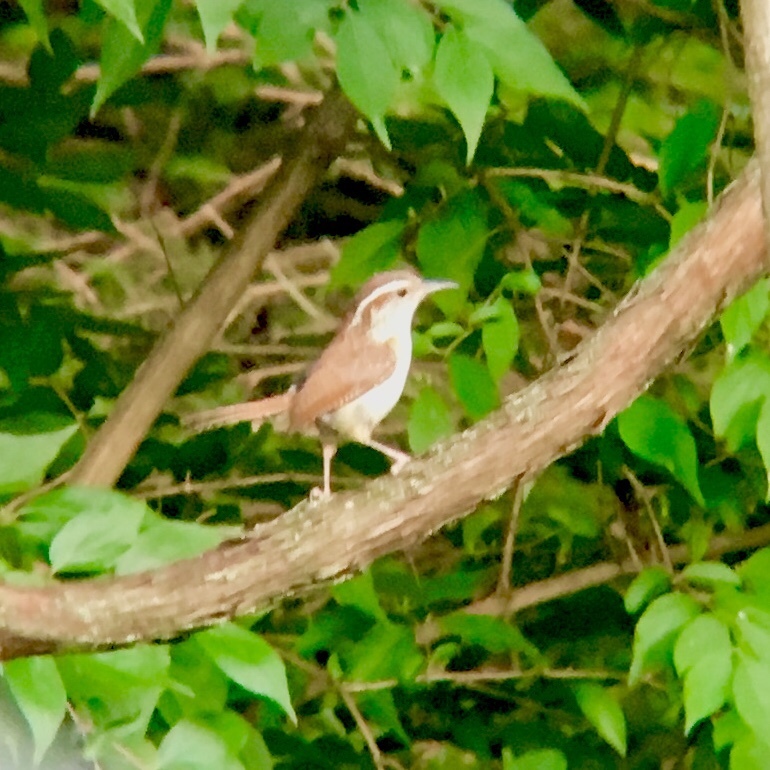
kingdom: Animalia
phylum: Chordata
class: Aves
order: Passeriformes
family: Troglodytidae
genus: Thryothorus
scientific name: Thryothorus ludovicianus
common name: Carolina wren
